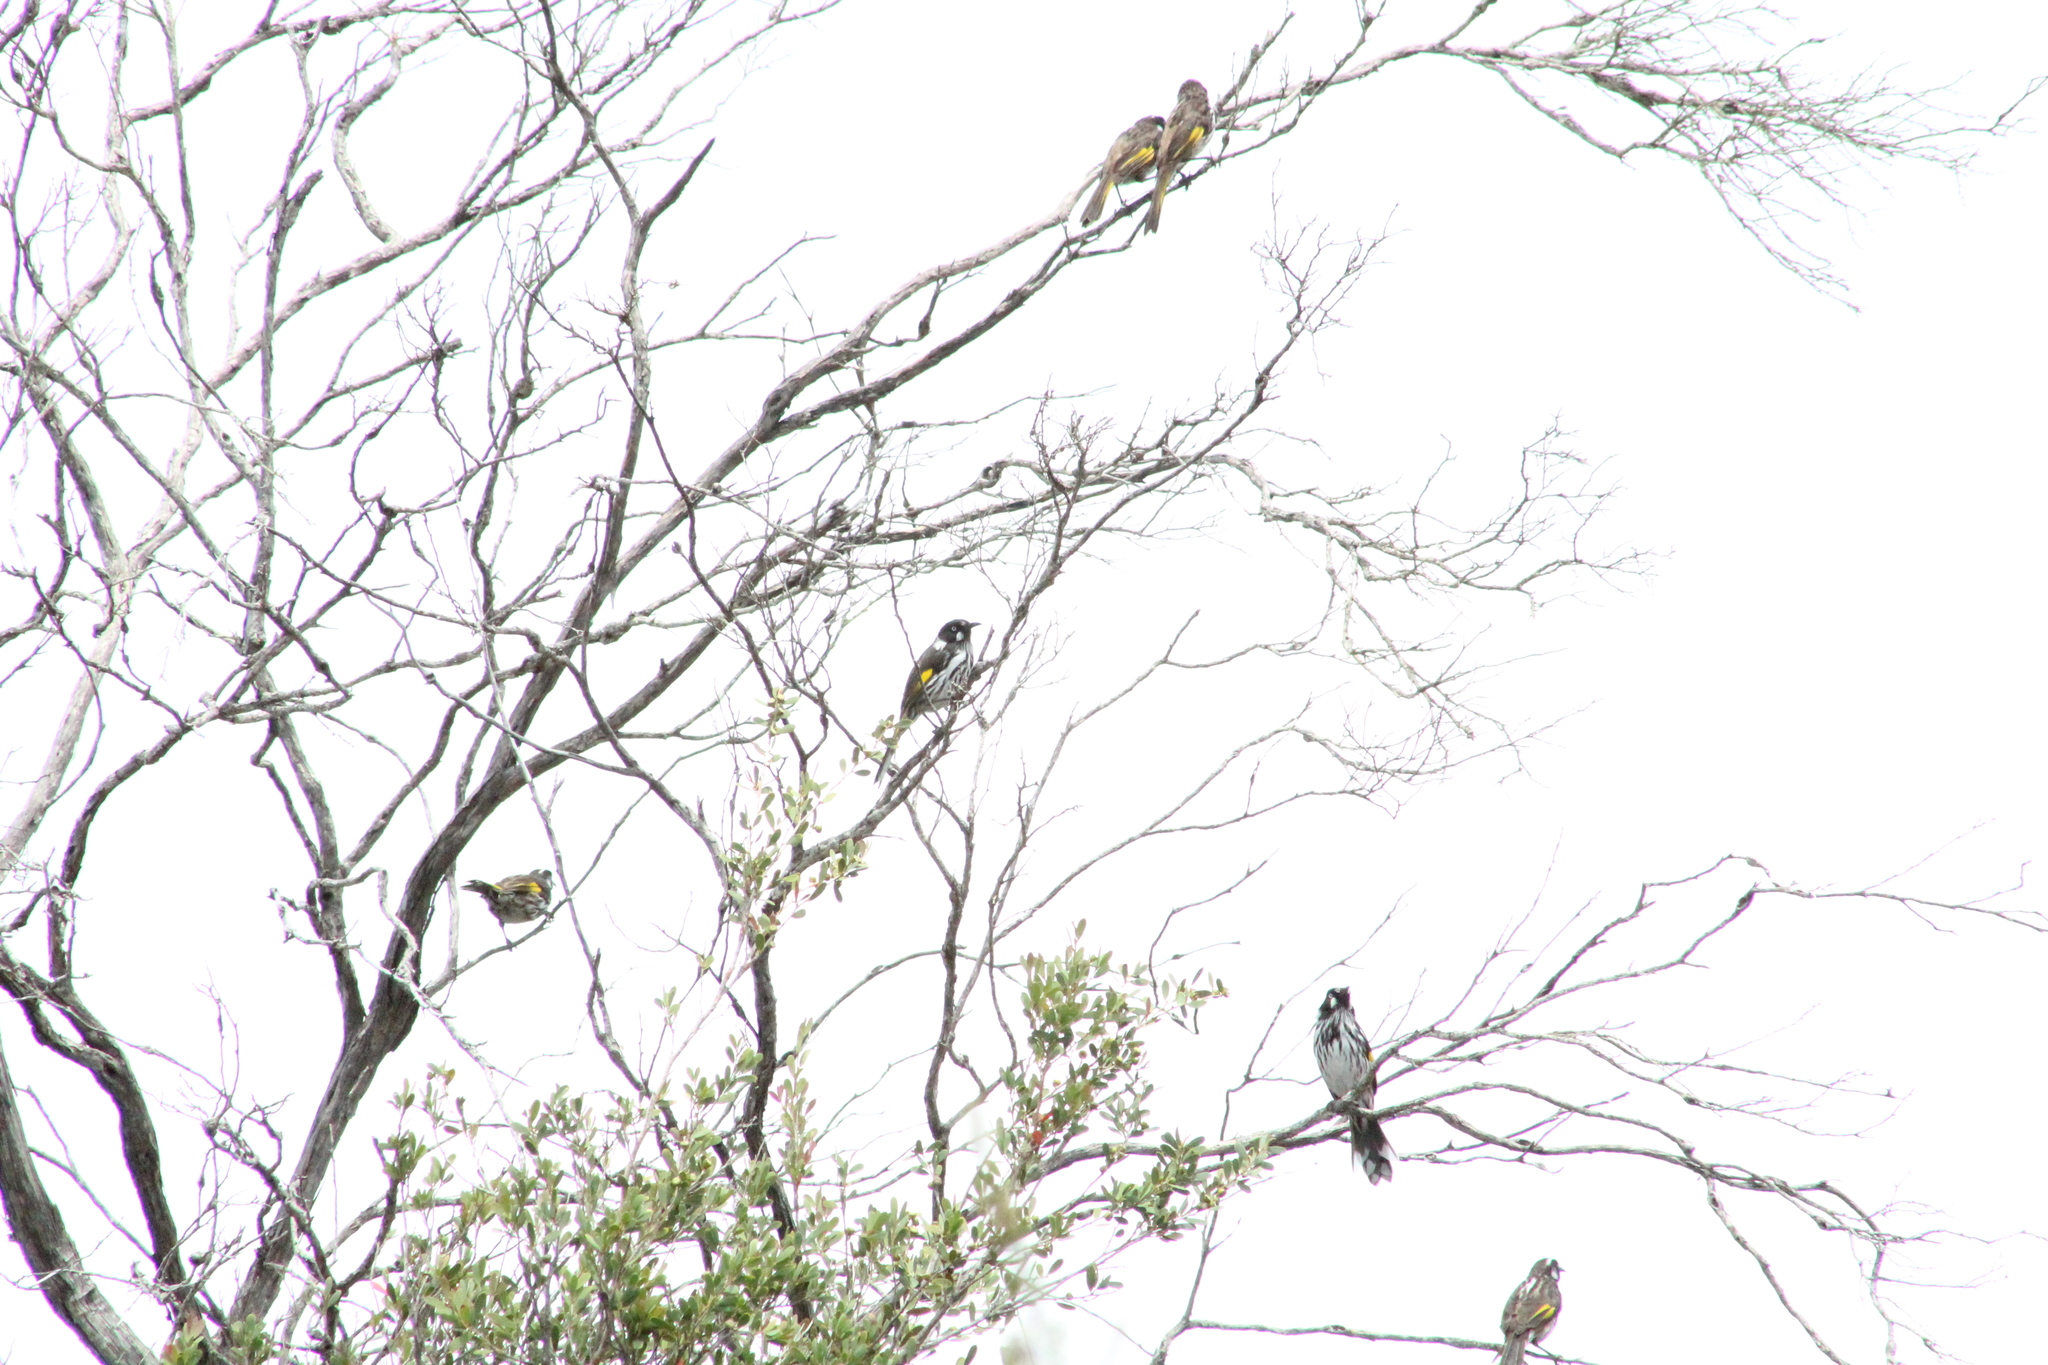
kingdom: Animalia
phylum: Chordata
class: Aves
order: Passeriformes
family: Meliphagidae
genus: Phylidonyris
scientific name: Phylidonyris novaehollandiae
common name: New holland honeyeater
